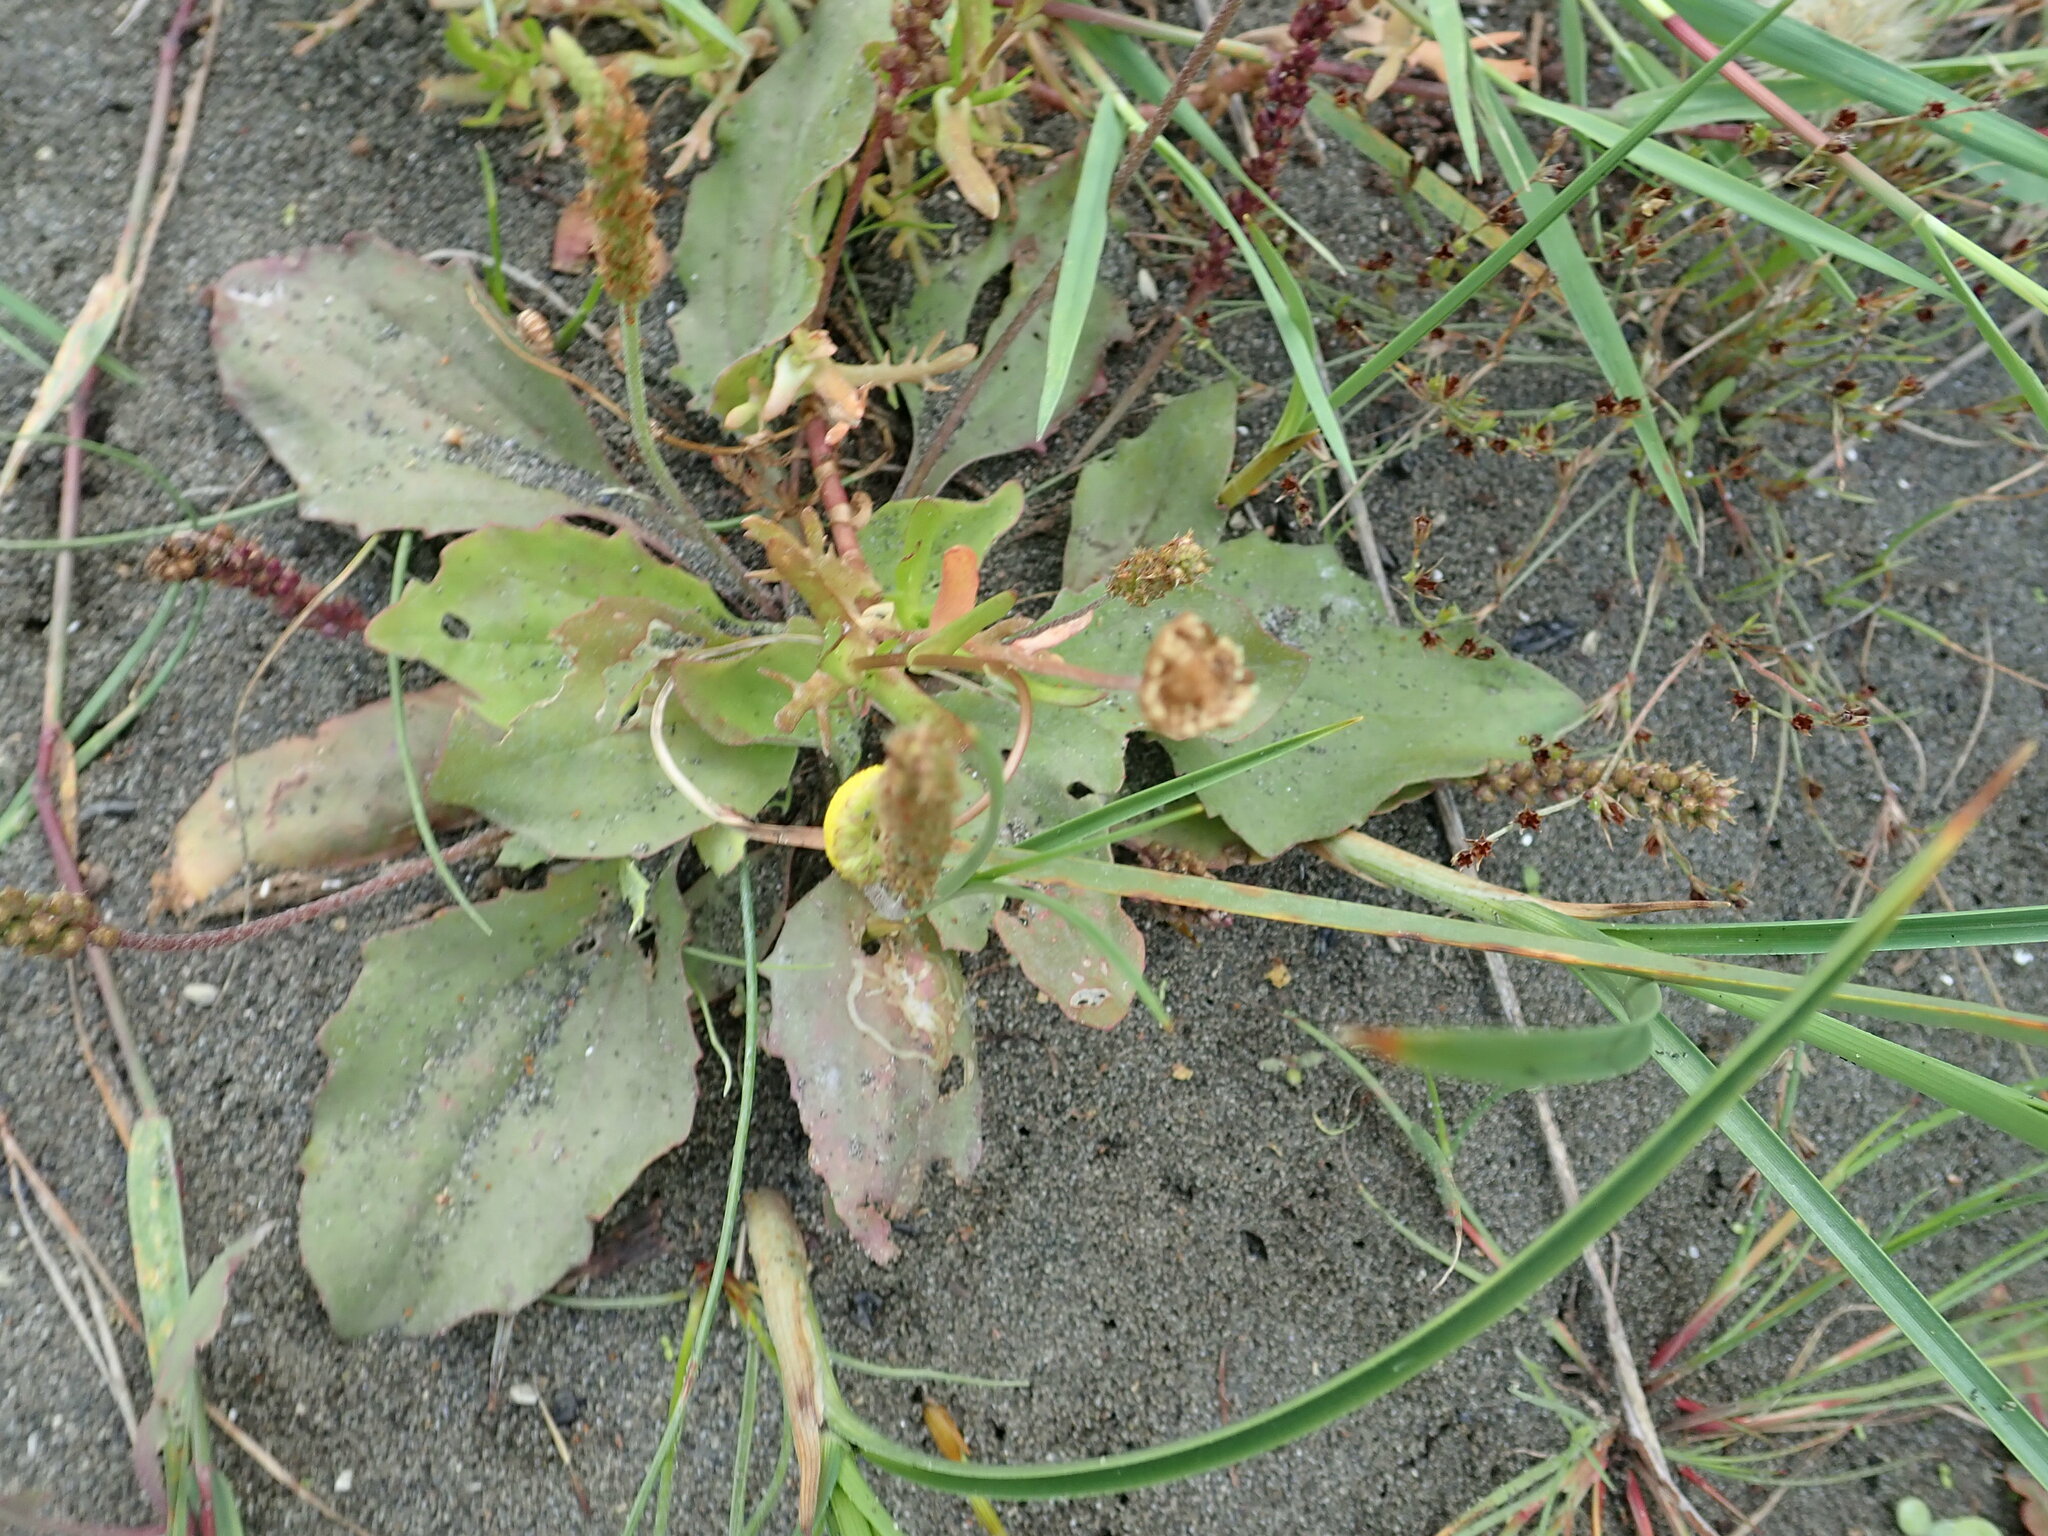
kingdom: Plantae
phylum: Tracheophyta
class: Magnoliopsida
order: Lamiales
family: Plantaginaceae
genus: Plantago
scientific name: Plantago australis
